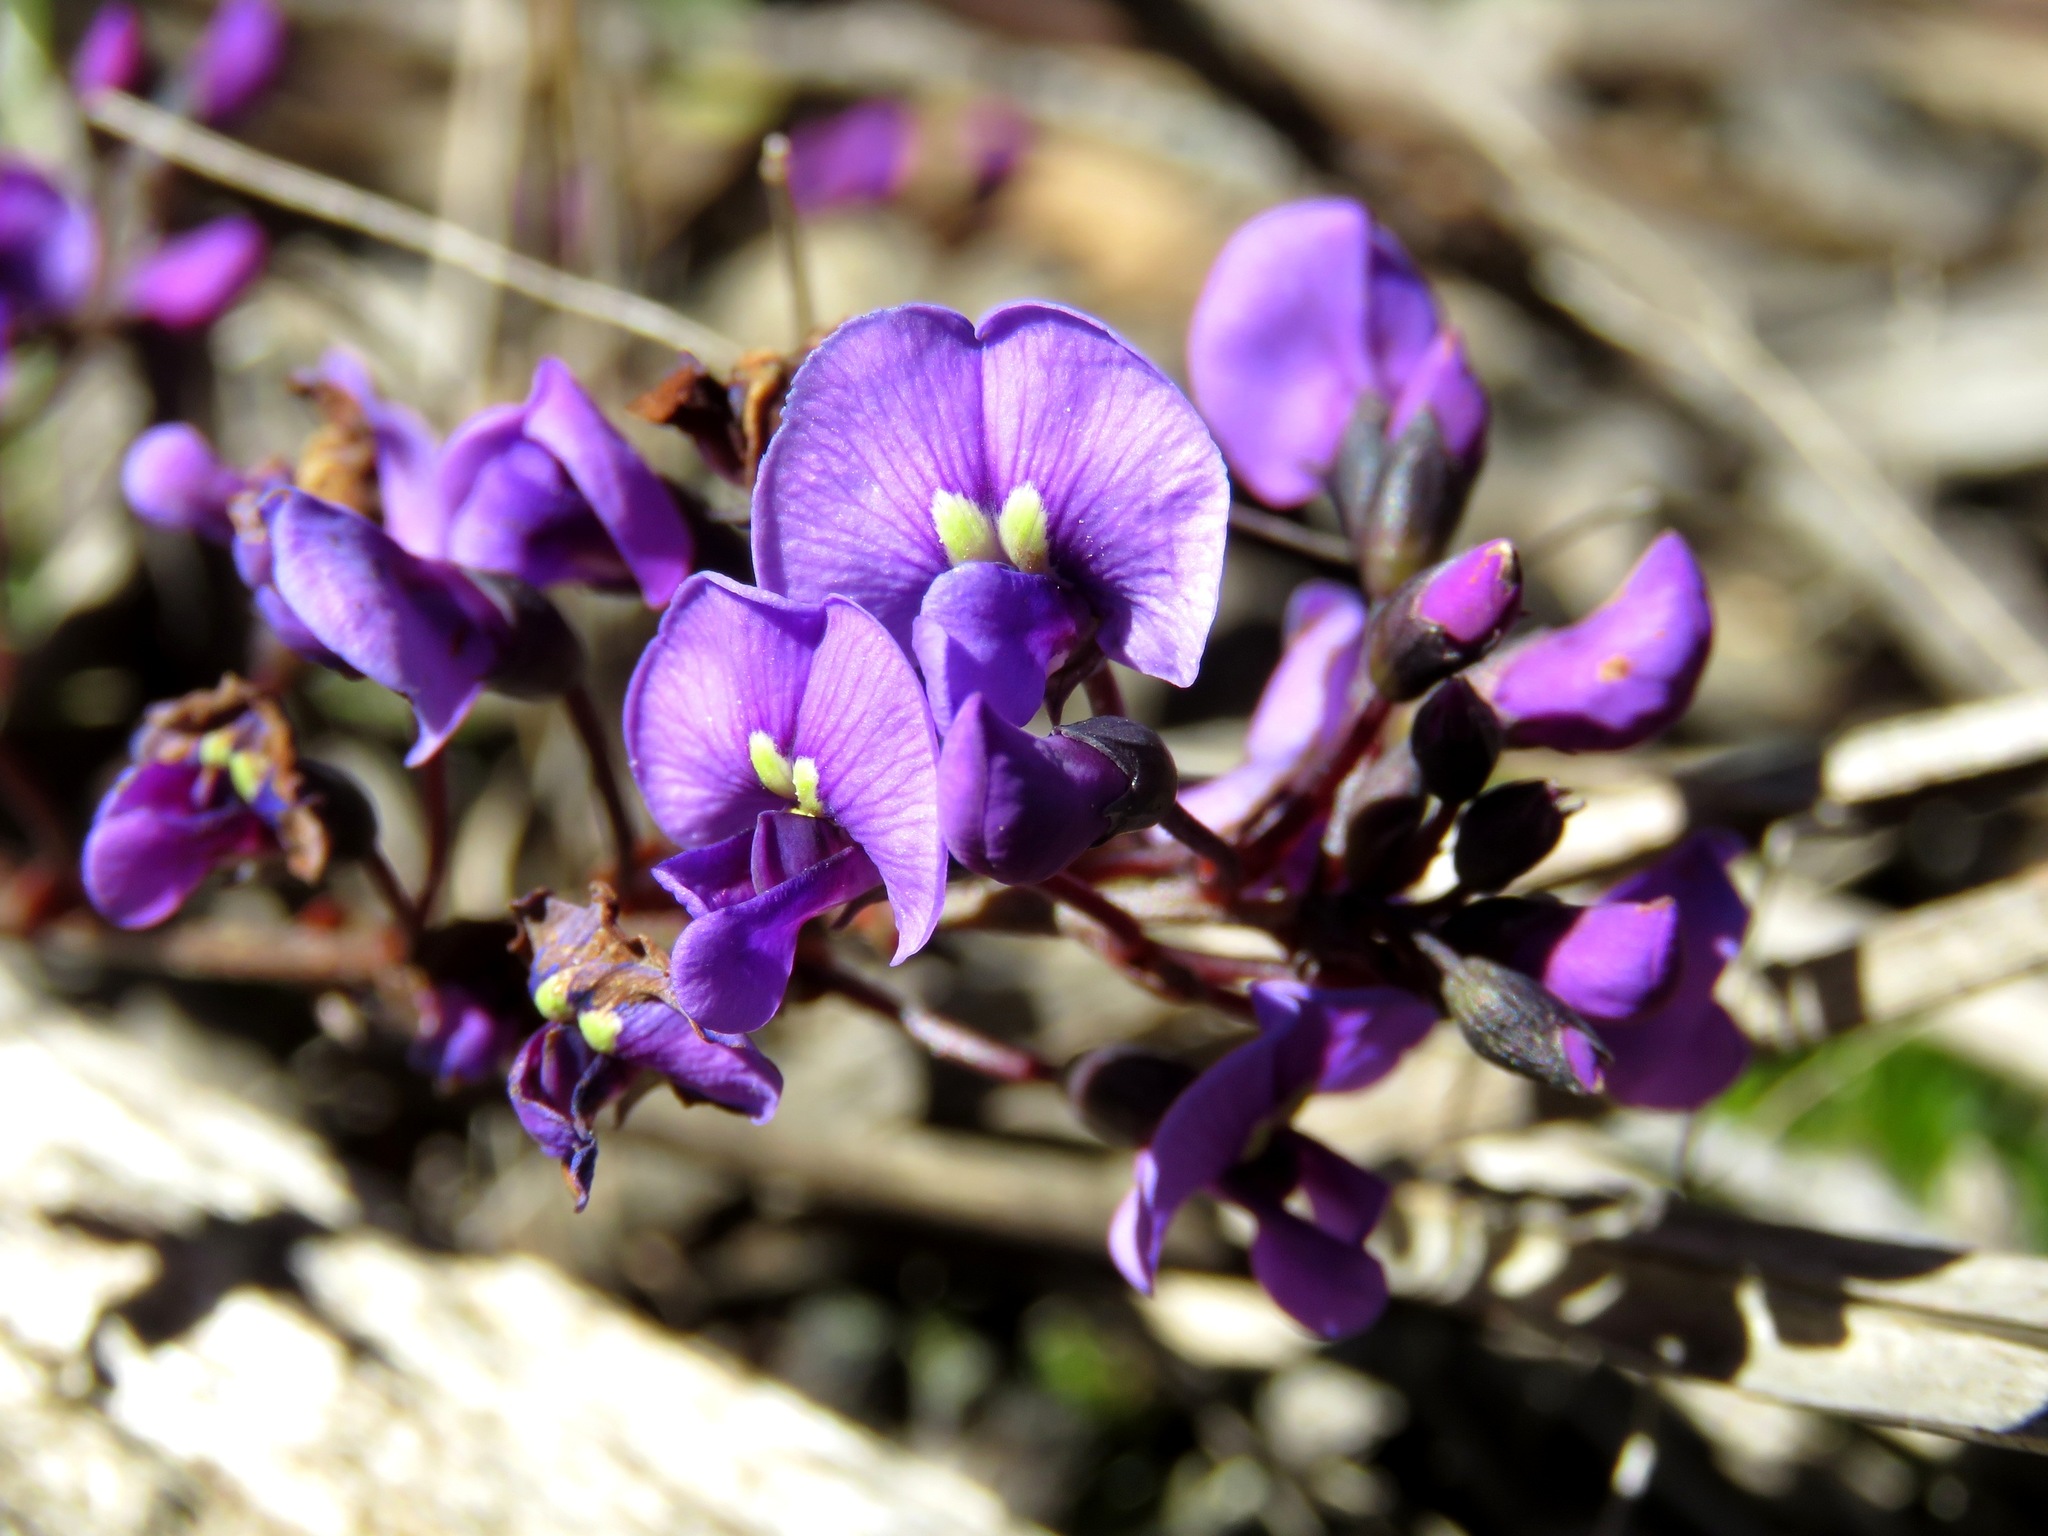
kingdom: Plantae
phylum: Tracheophyta
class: Magnoliopsida
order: Fabales
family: Fabaceae
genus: Hardenbergia
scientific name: Hardenbergia violacea
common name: Coral-pea
